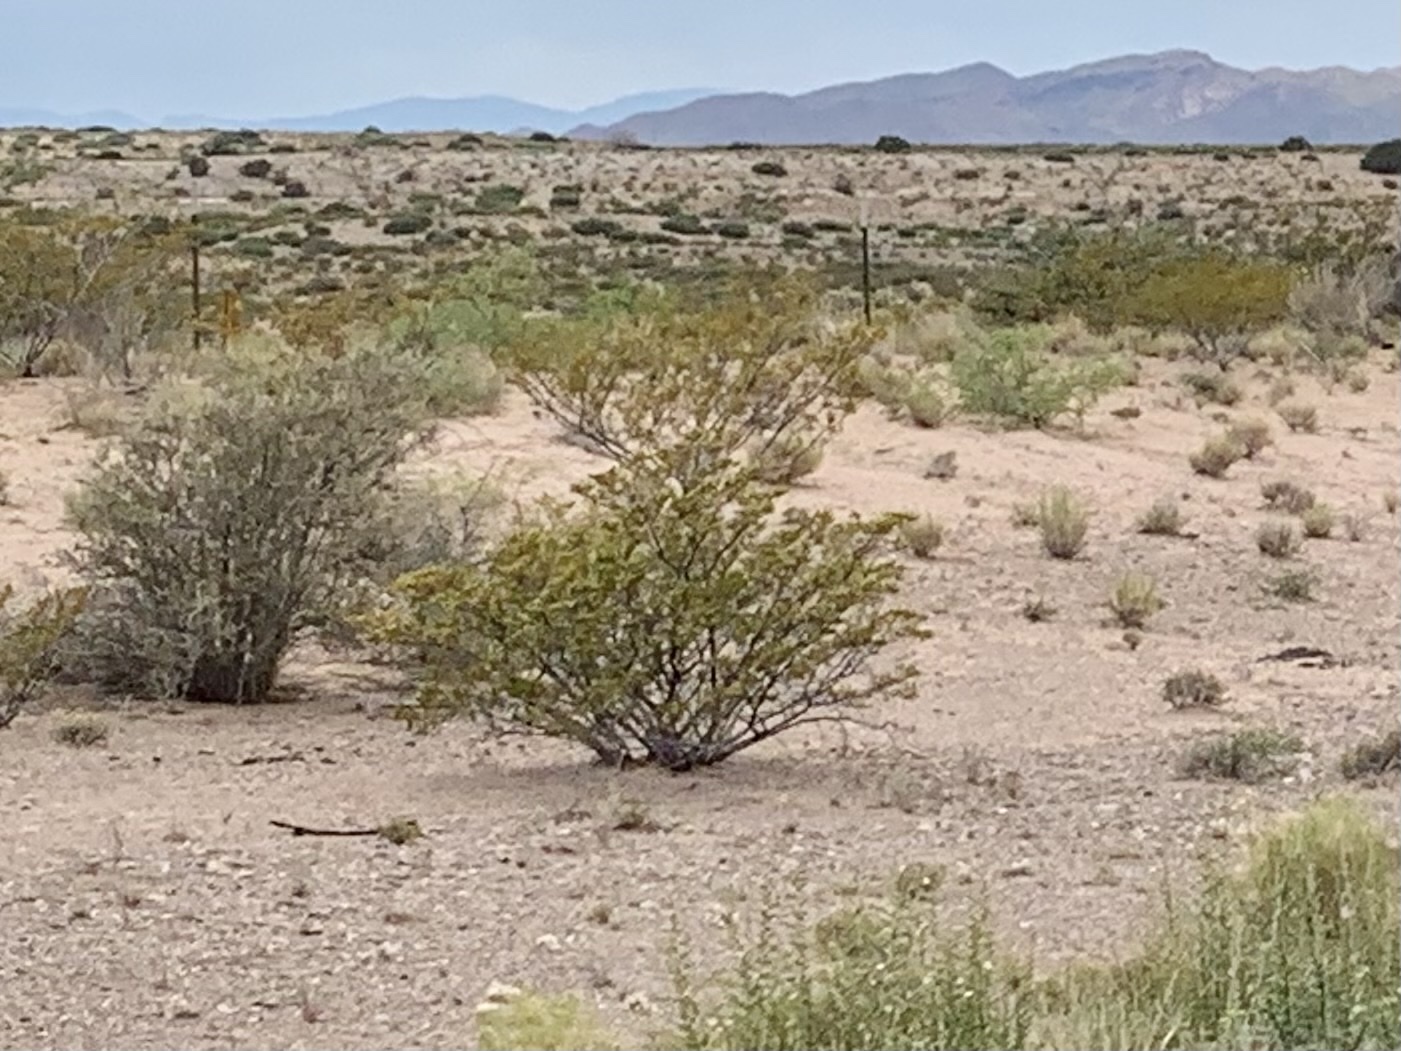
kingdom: Plantae
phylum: Tracheophyta
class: Magnoliopsida
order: Zygophyllales
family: Zygophyllaceae
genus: Larrea
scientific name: Larrea tridentata
